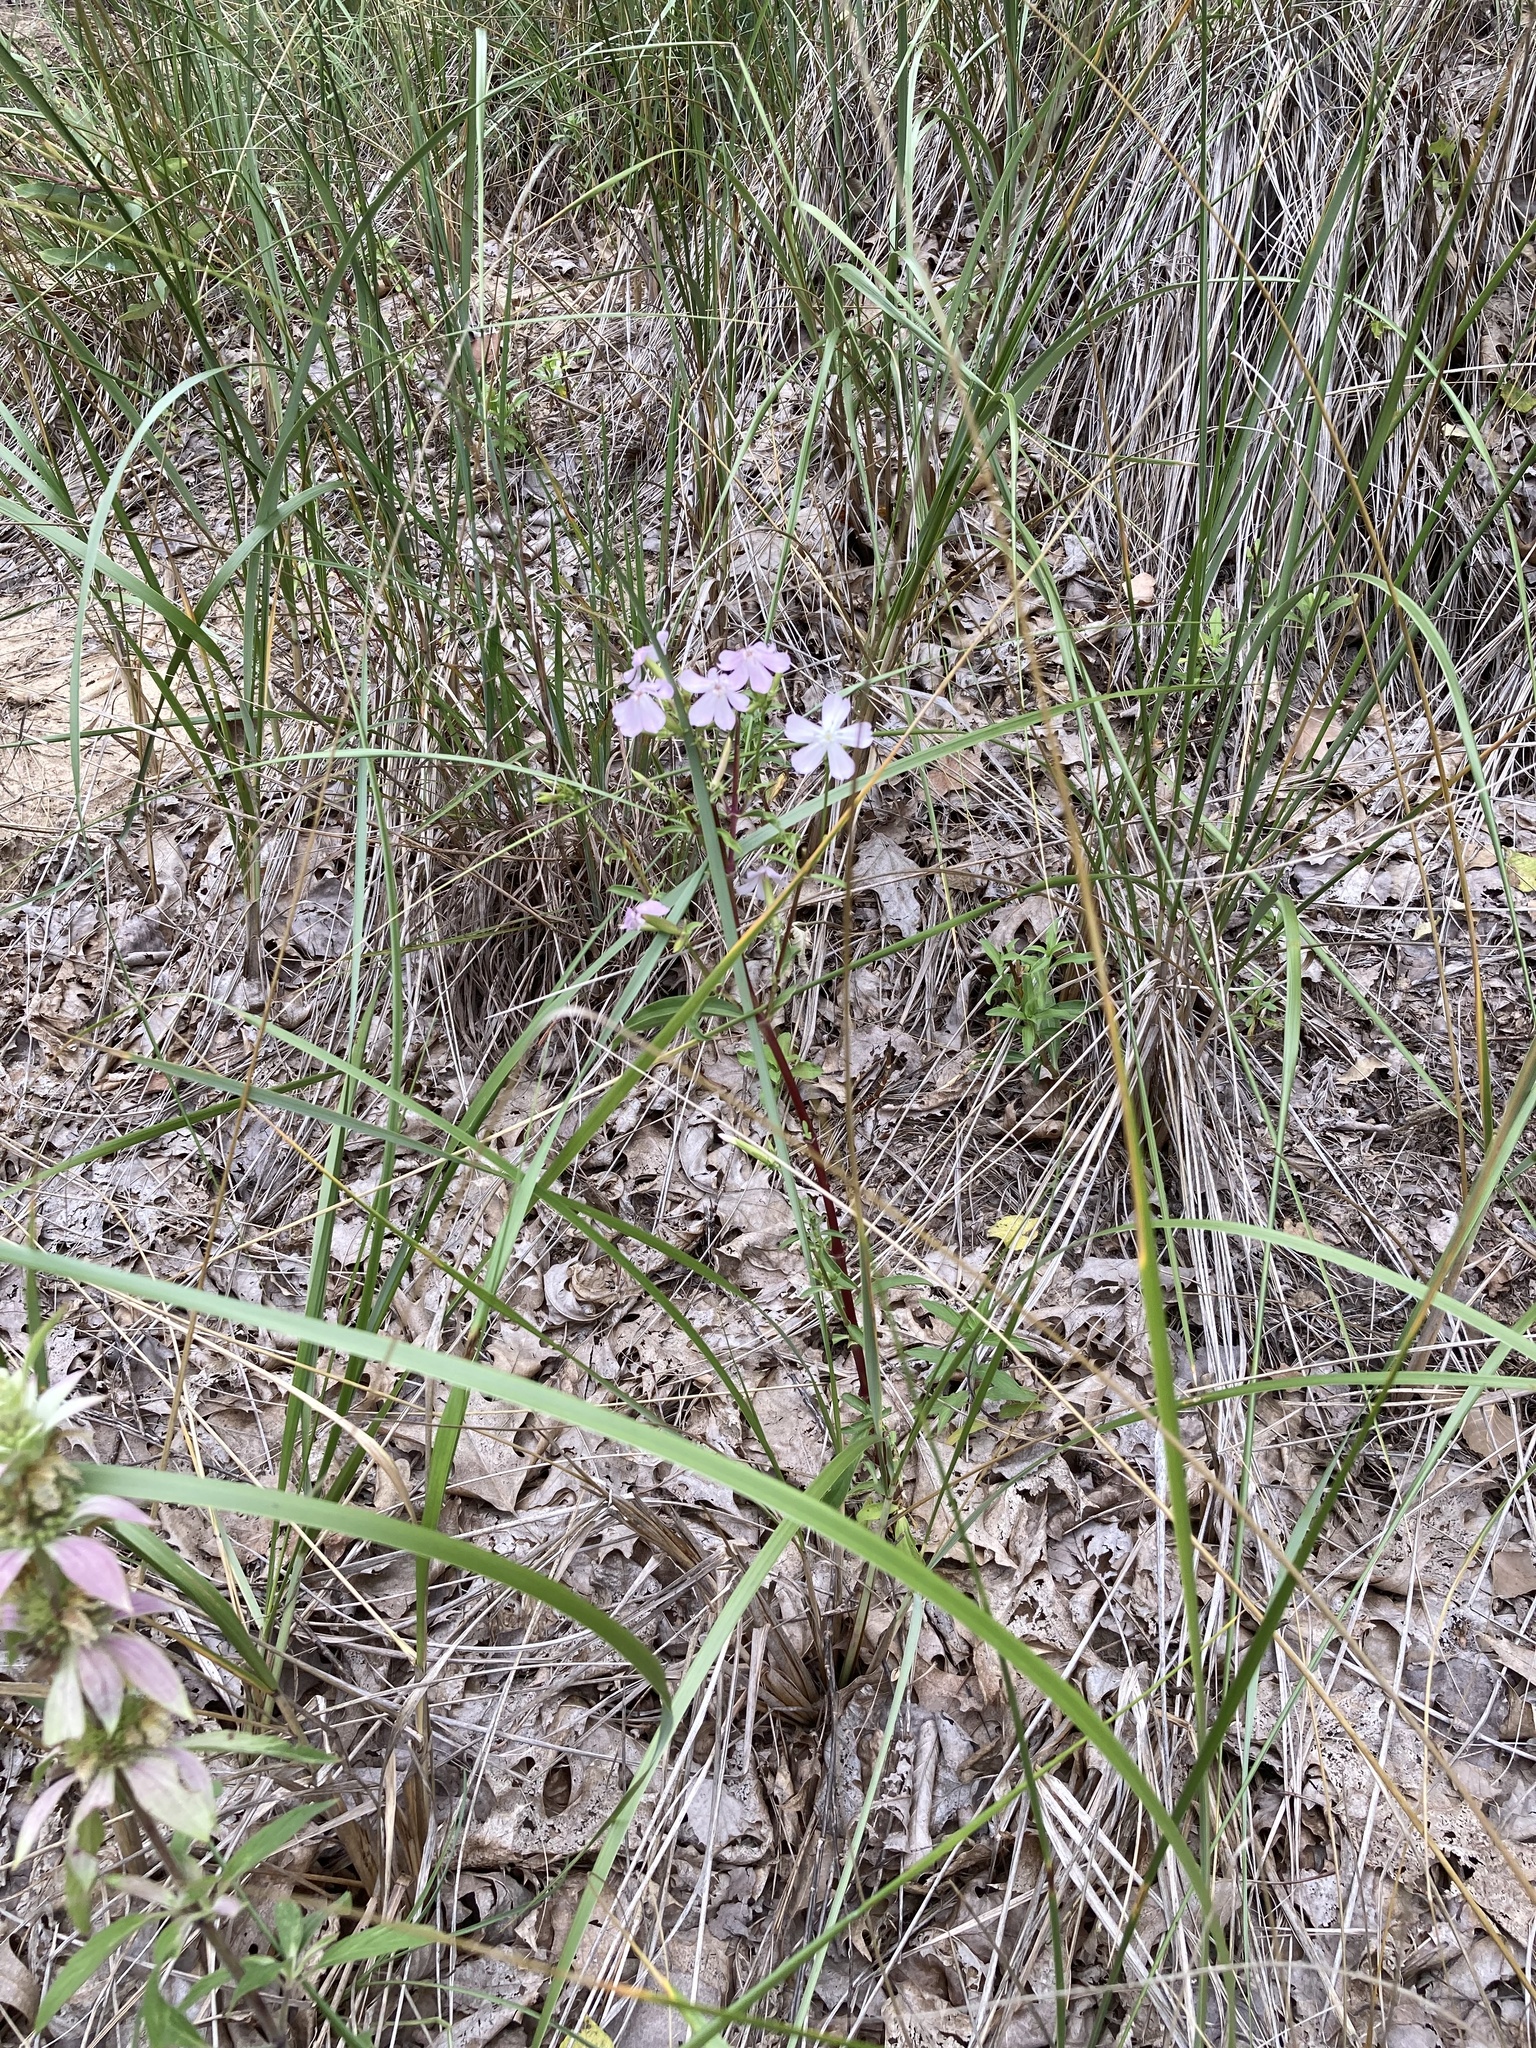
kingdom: Plantae
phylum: Tracheophyta
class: Magnoliopsida
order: Caryophyllales
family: Caryophyllaceae
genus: Saponaria
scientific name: Saponaria officinalis
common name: Soapwort
